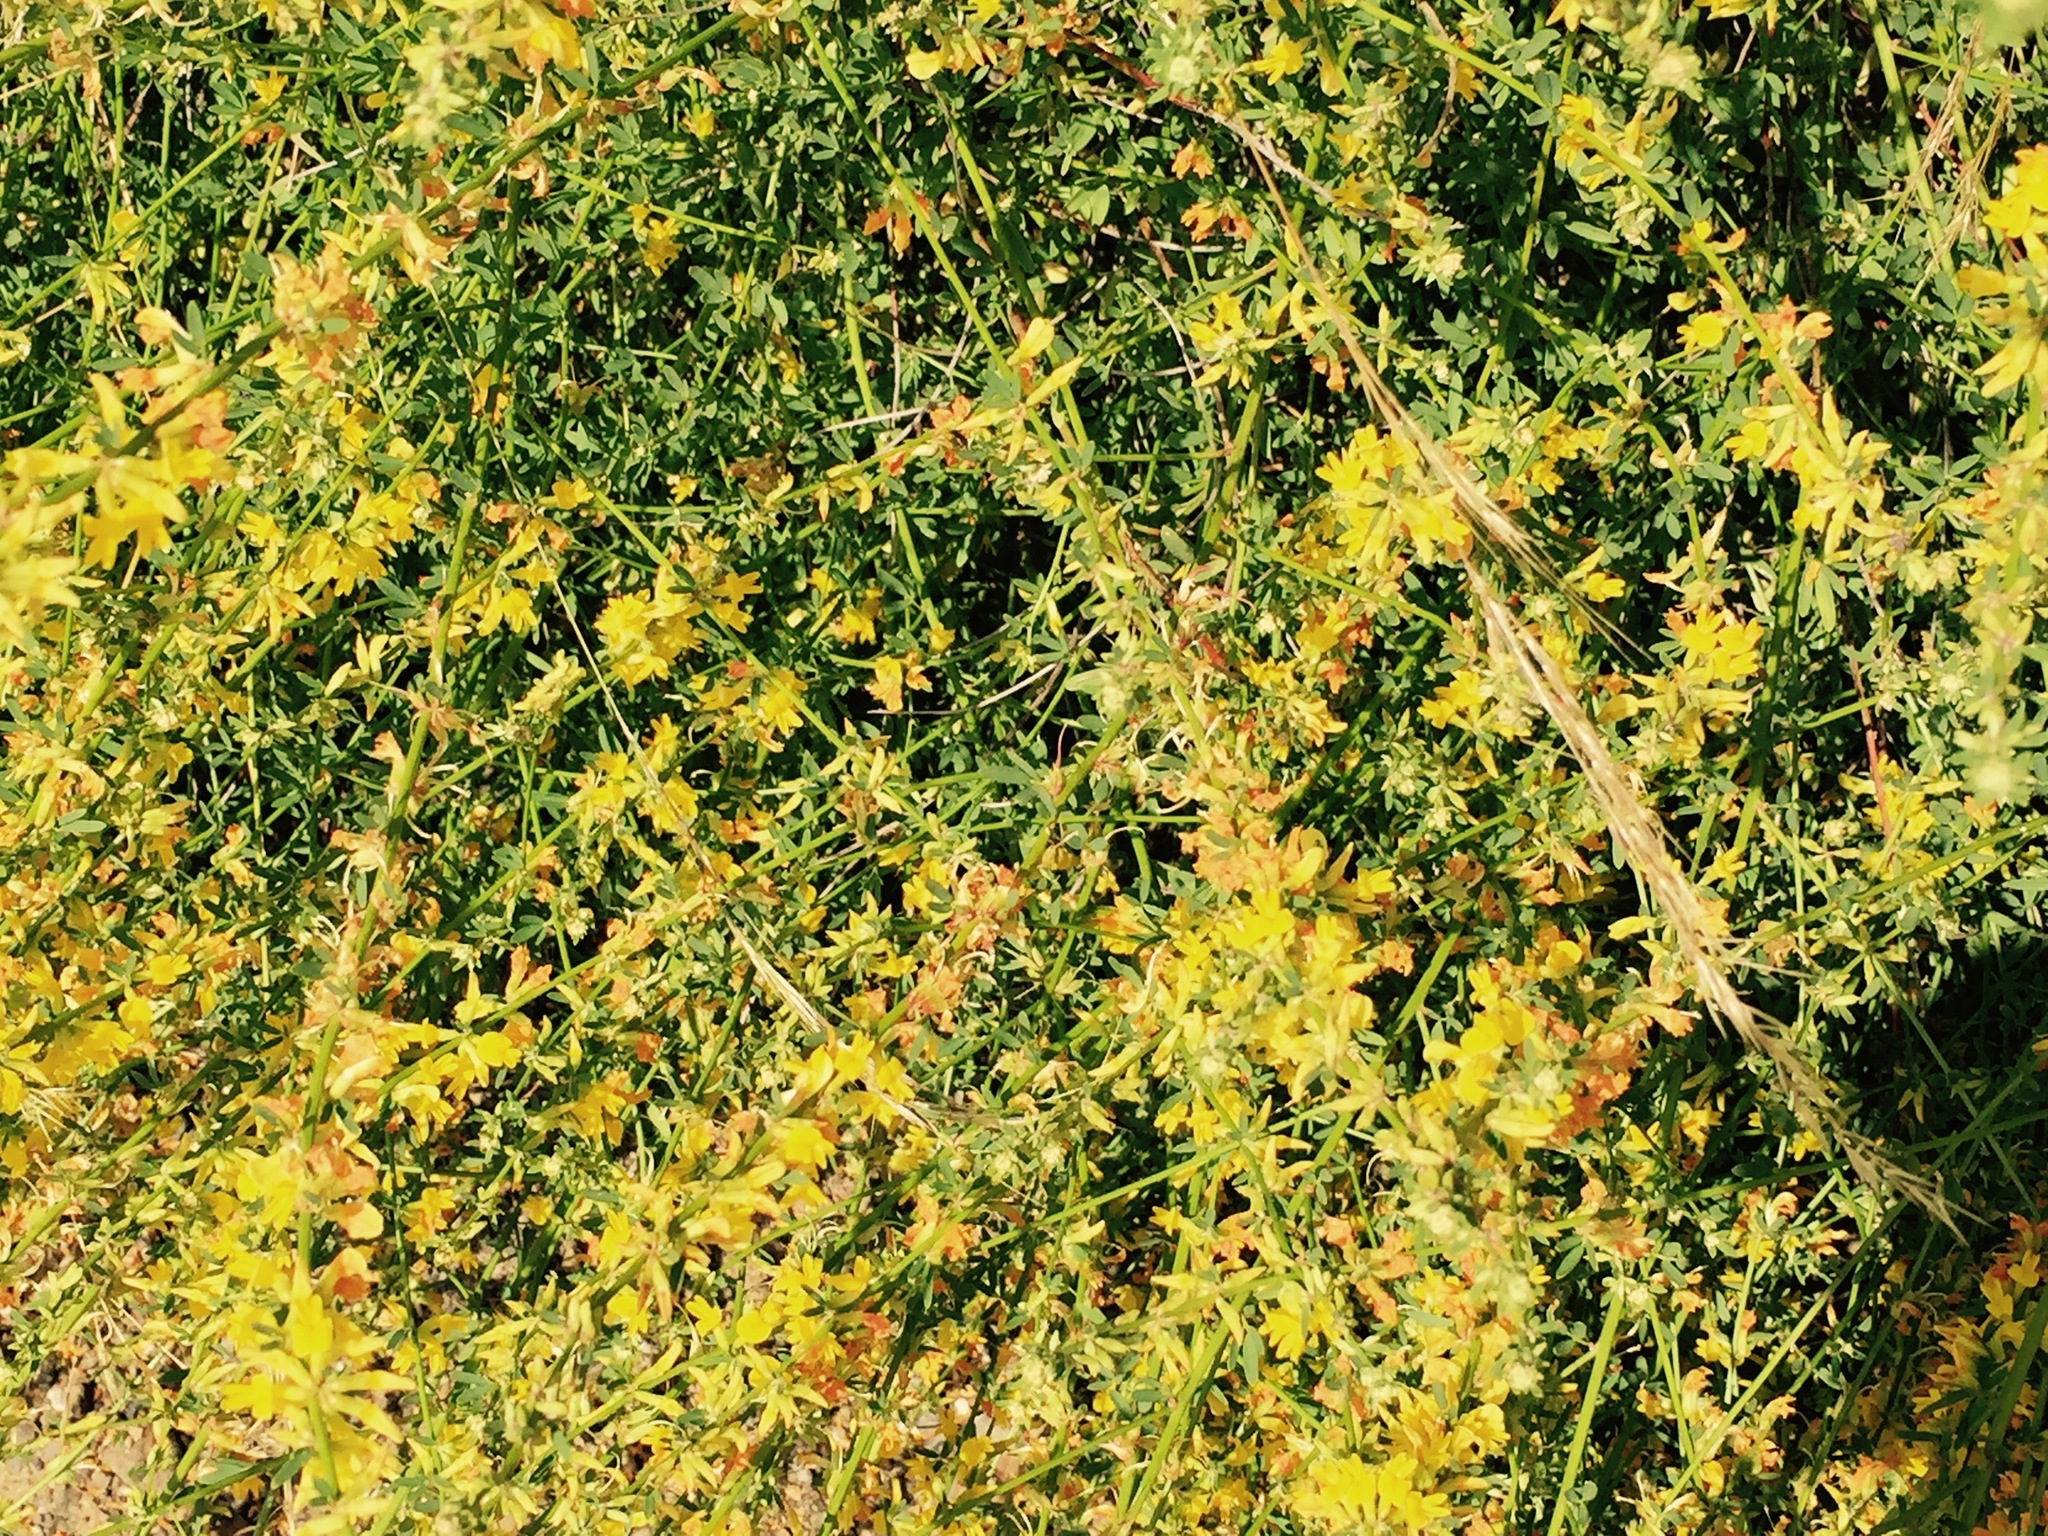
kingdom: Plantae
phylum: Tracheophyta
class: Magnoliopsida
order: Fabales
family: Fabaceae
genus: Acmispon
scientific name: Acmispon glaber
